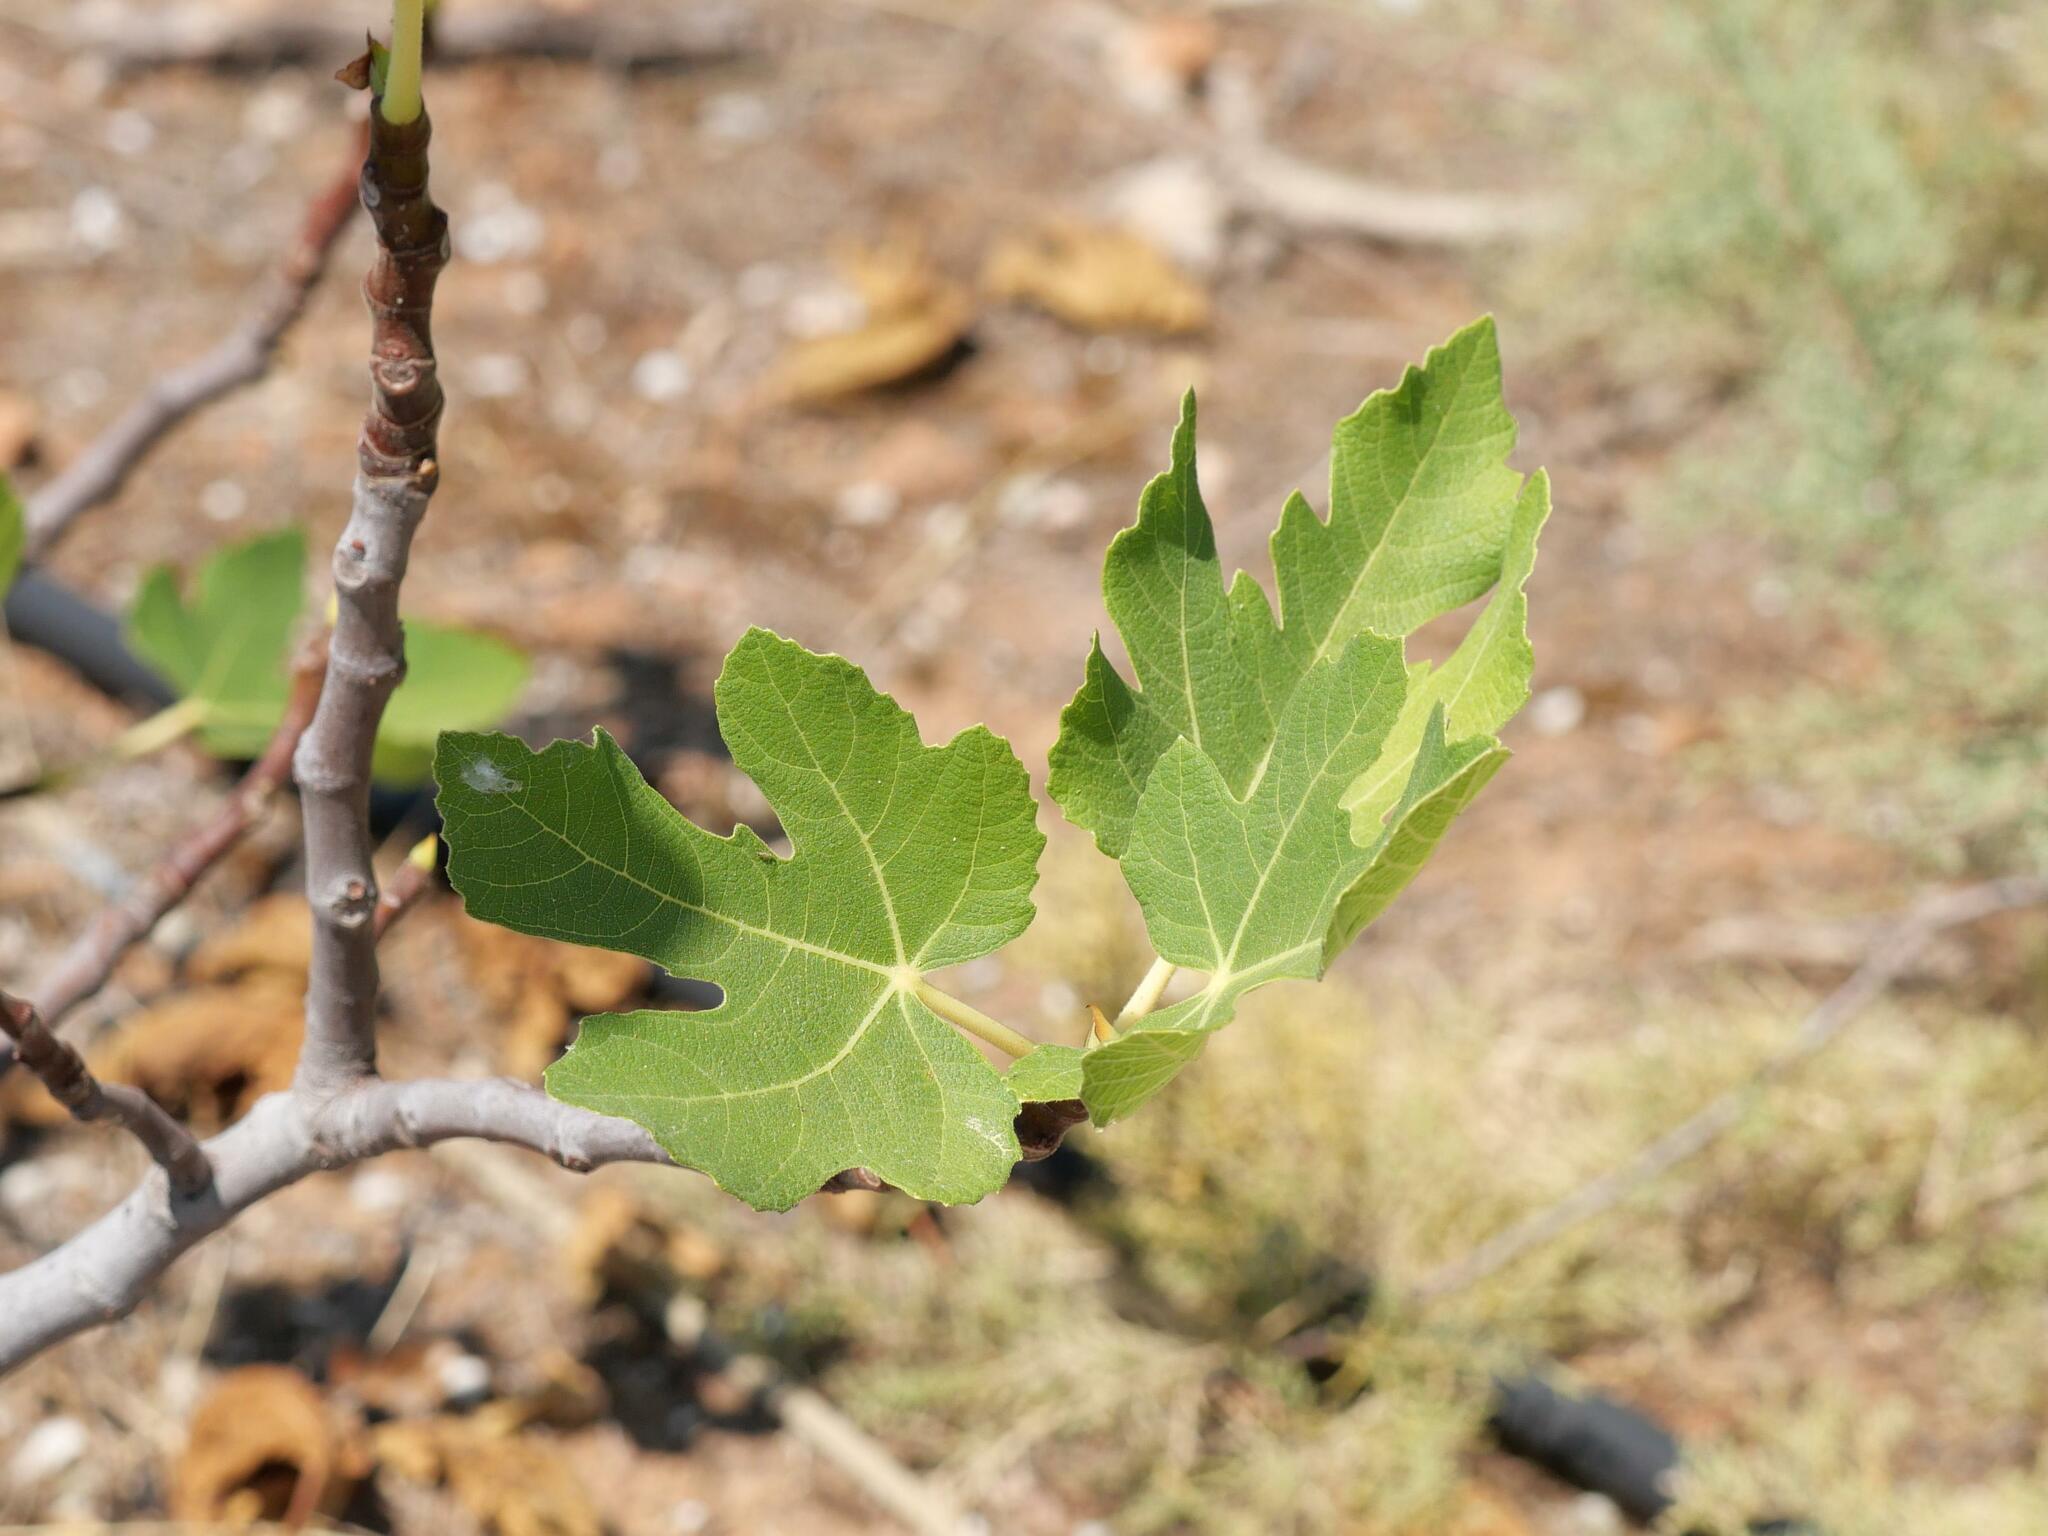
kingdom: Plantae
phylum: Tracheophyta
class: Magnoliopsida
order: Rosales
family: Moraceae
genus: Ficus
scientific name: Ficus carica
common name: Fig
